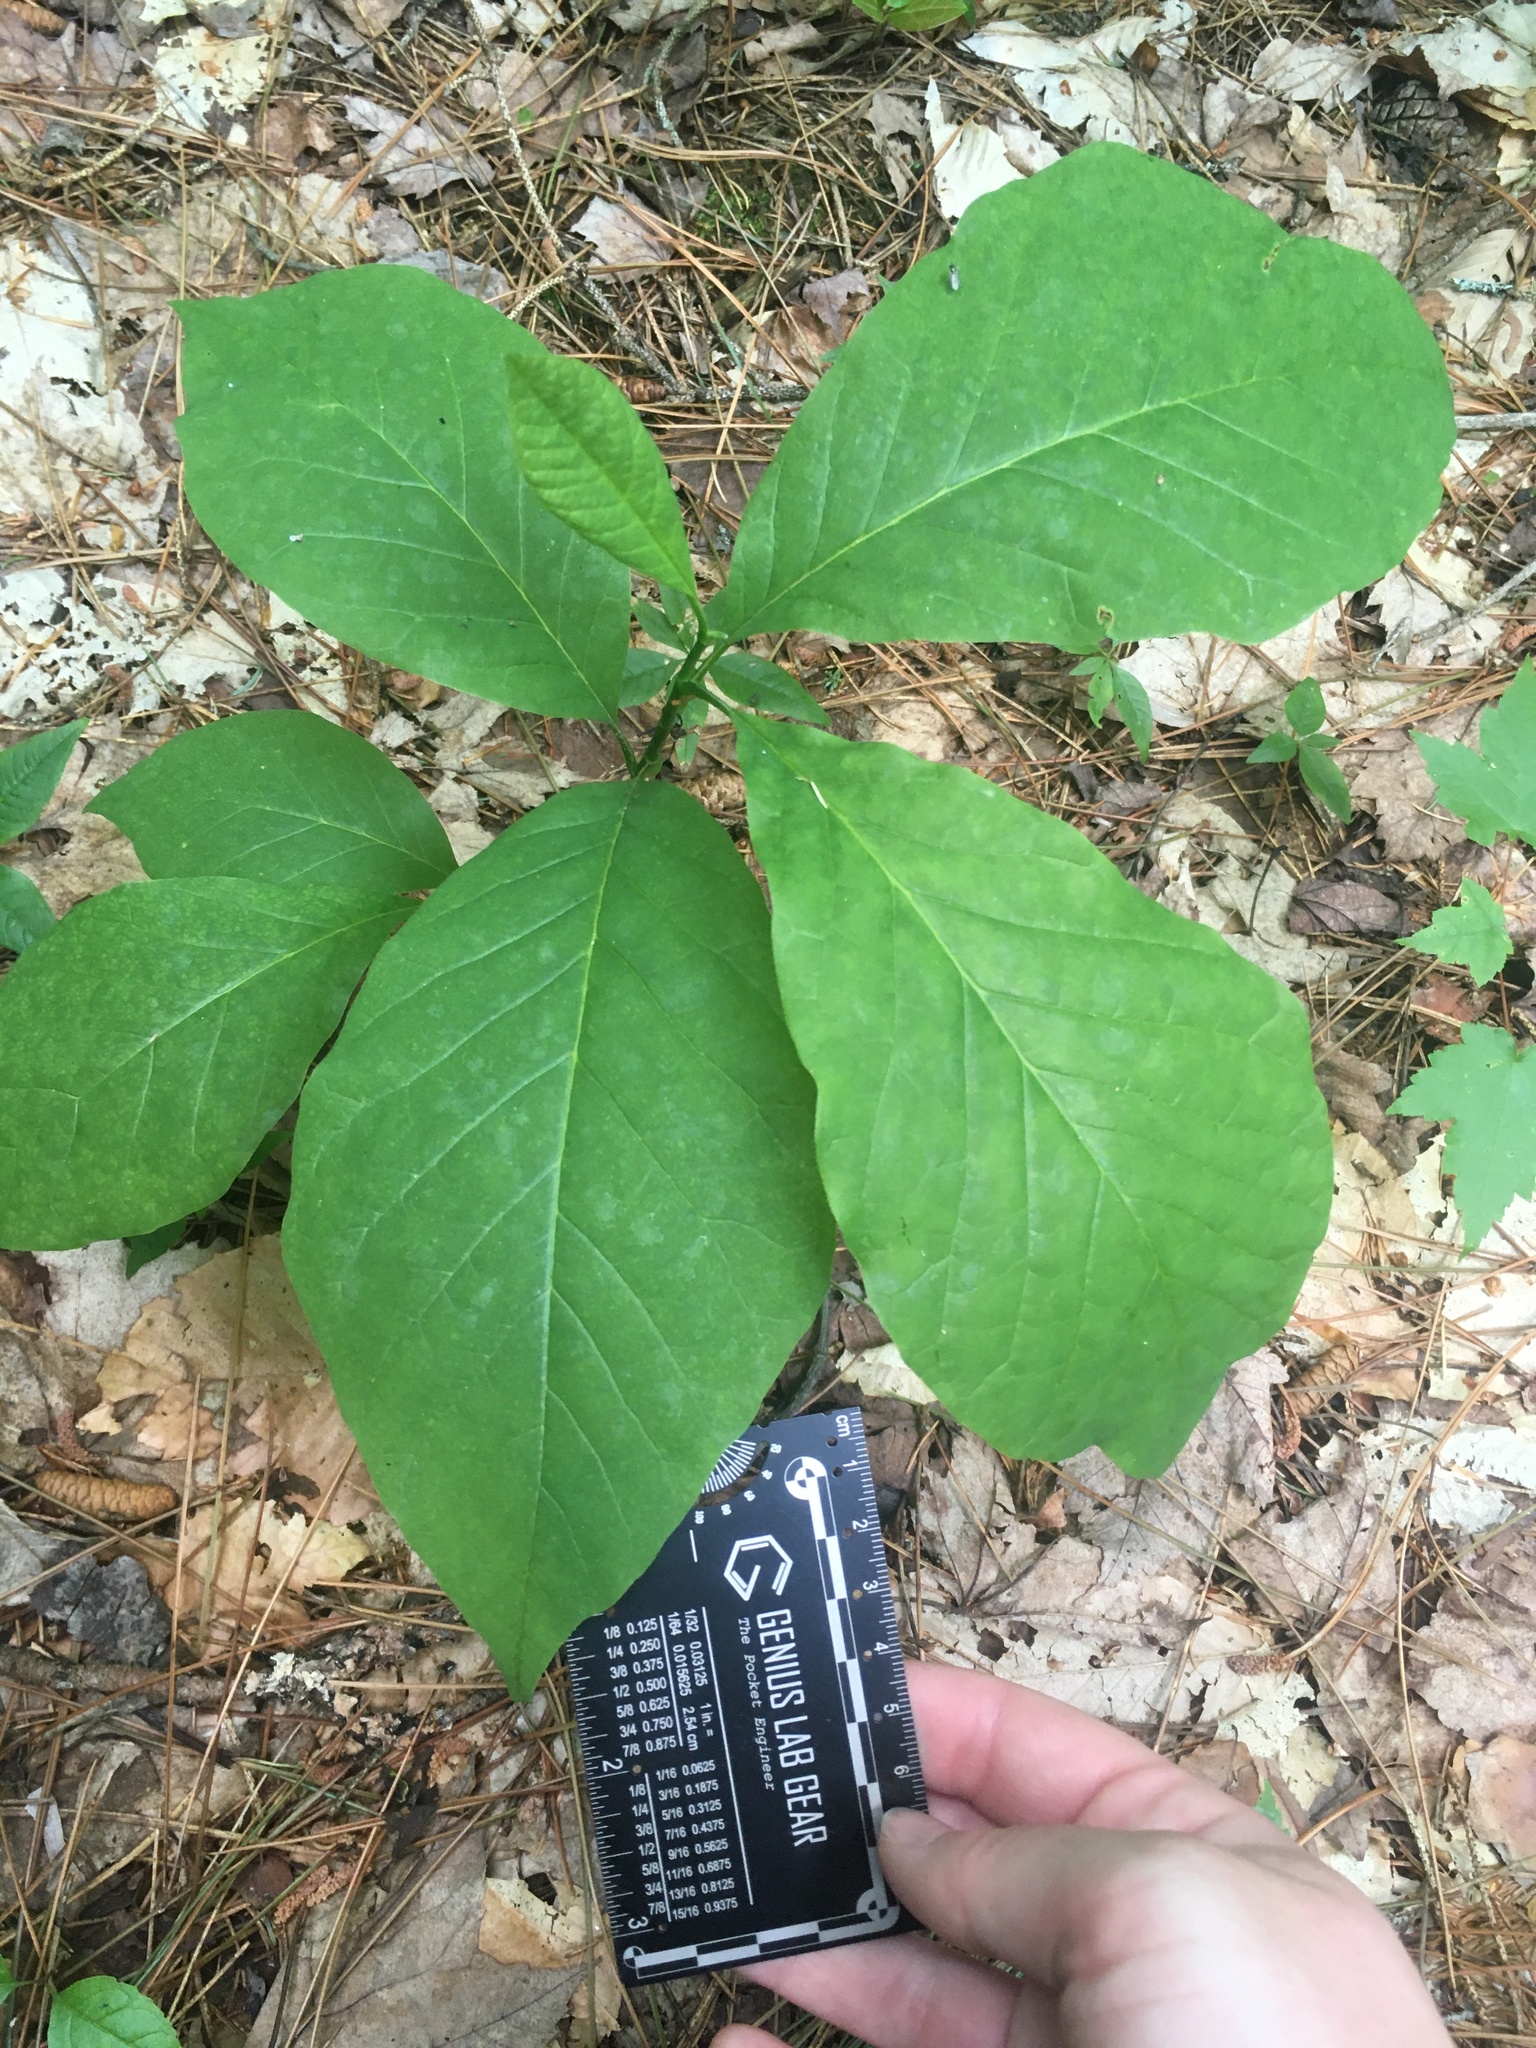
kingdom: Plantae
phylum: Tracheophyta
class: Magnoliopsida
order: Magnoliales
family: Magnoliaceae
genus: Magnolia
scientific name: Magnolia acuminata
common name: Cucumber magnolia
